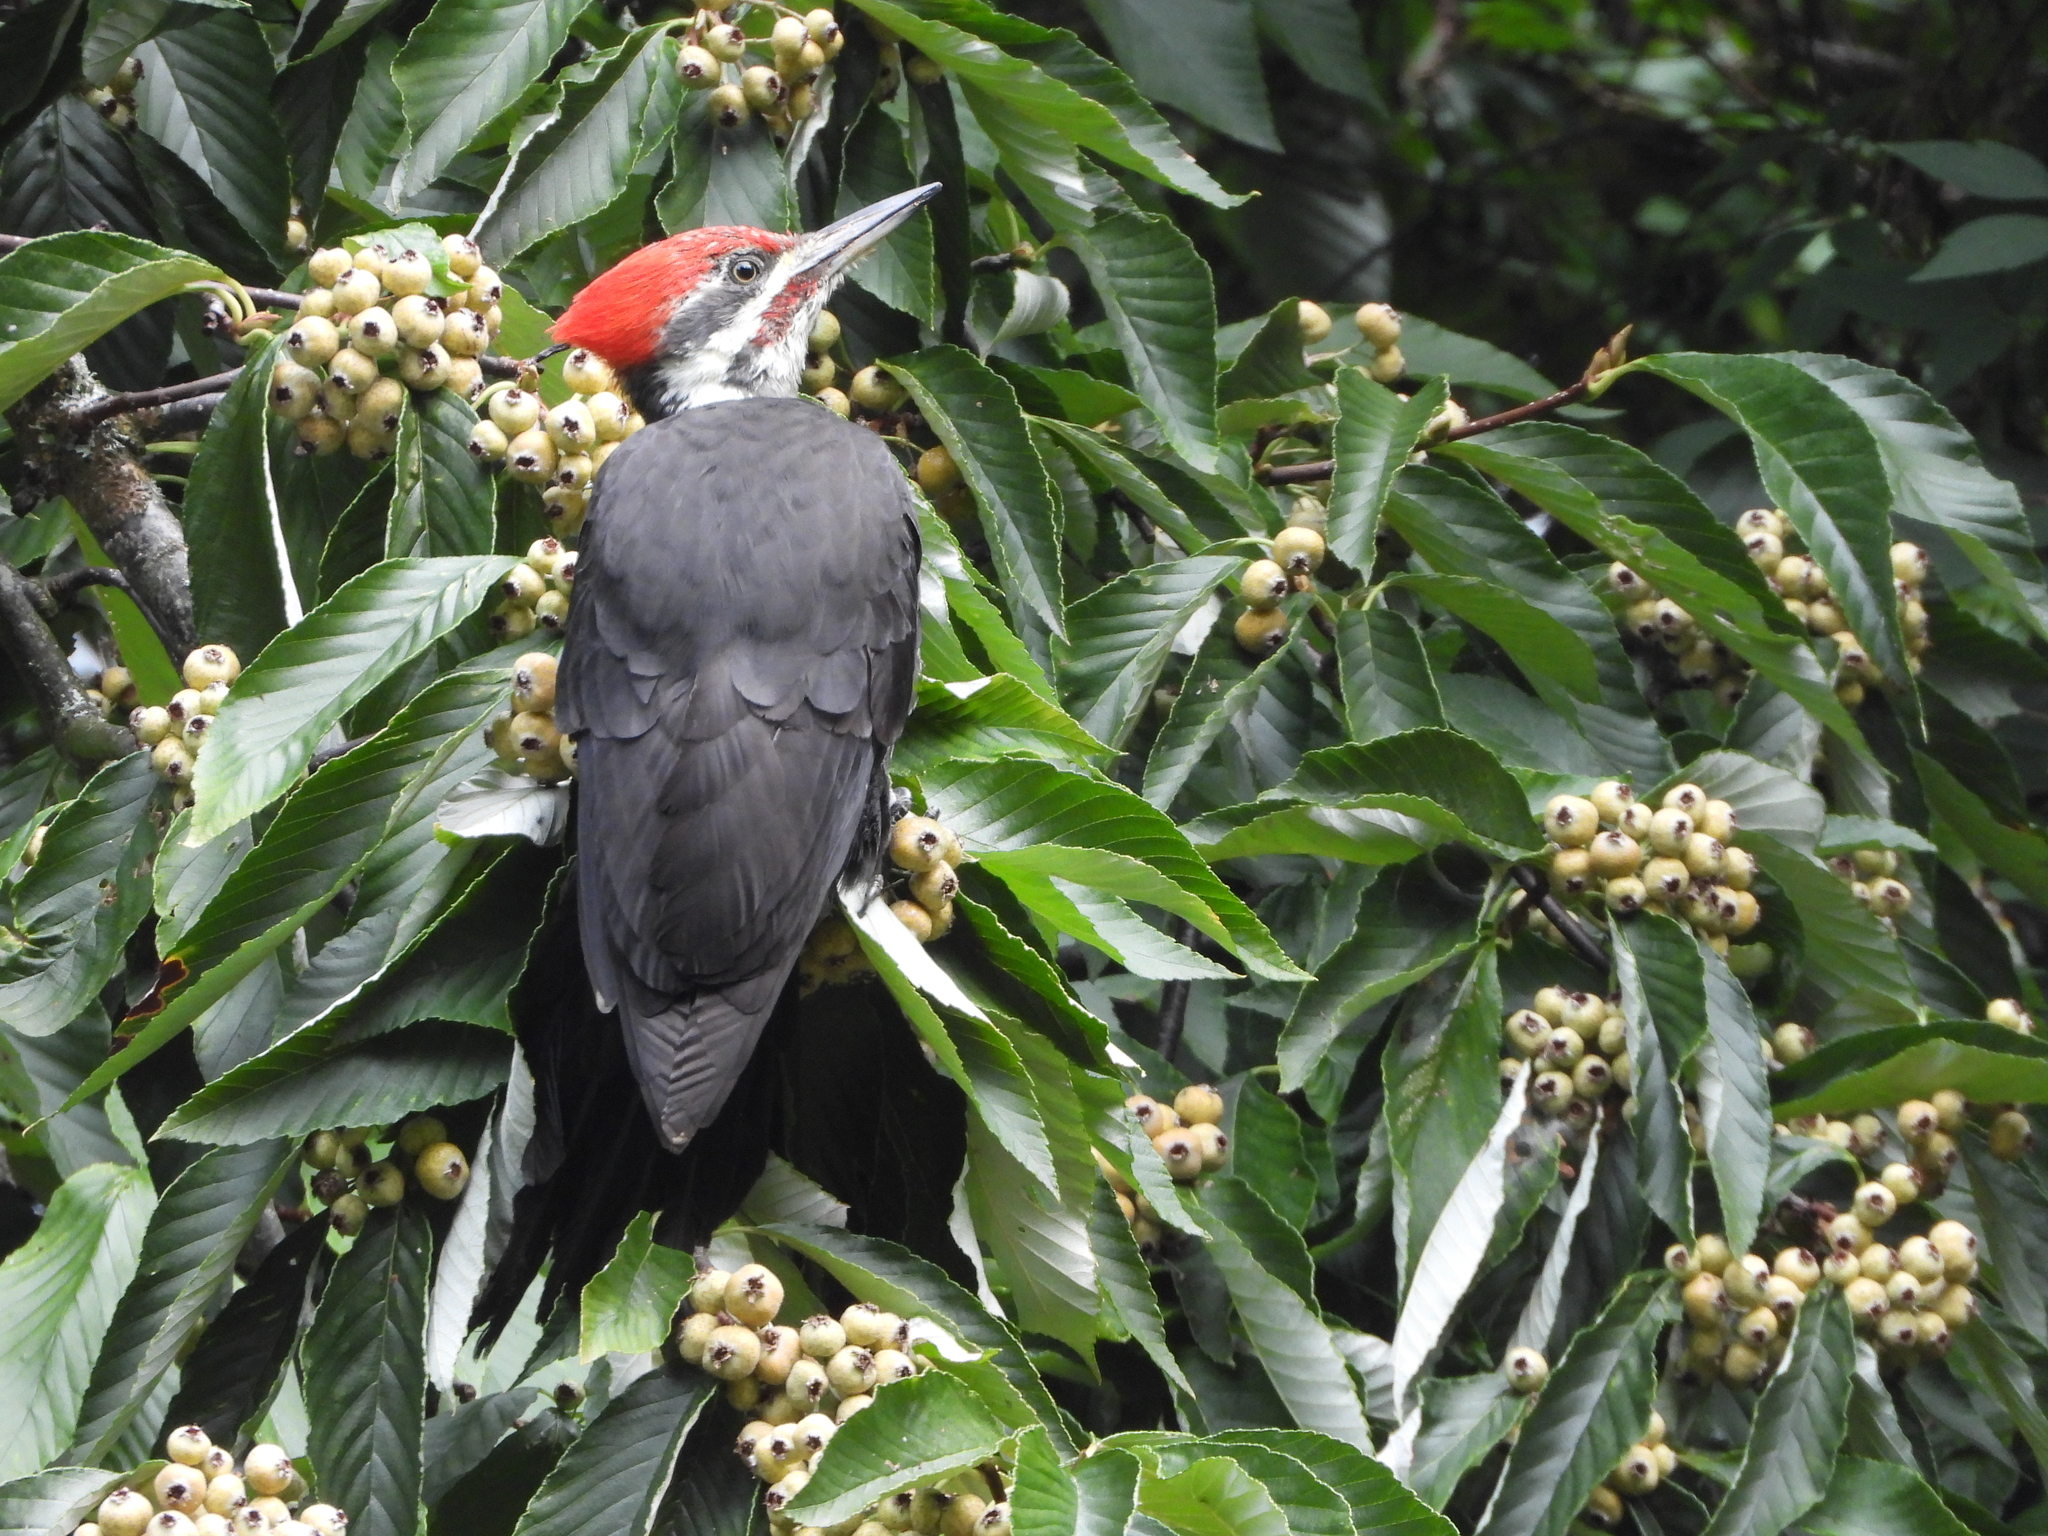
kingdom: Animalia
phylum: Chordata
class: Aves
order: Piciformes
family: Picidae
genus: Dryocopus
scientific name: Dryocopus pileatus
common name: Pileated woodpecker
